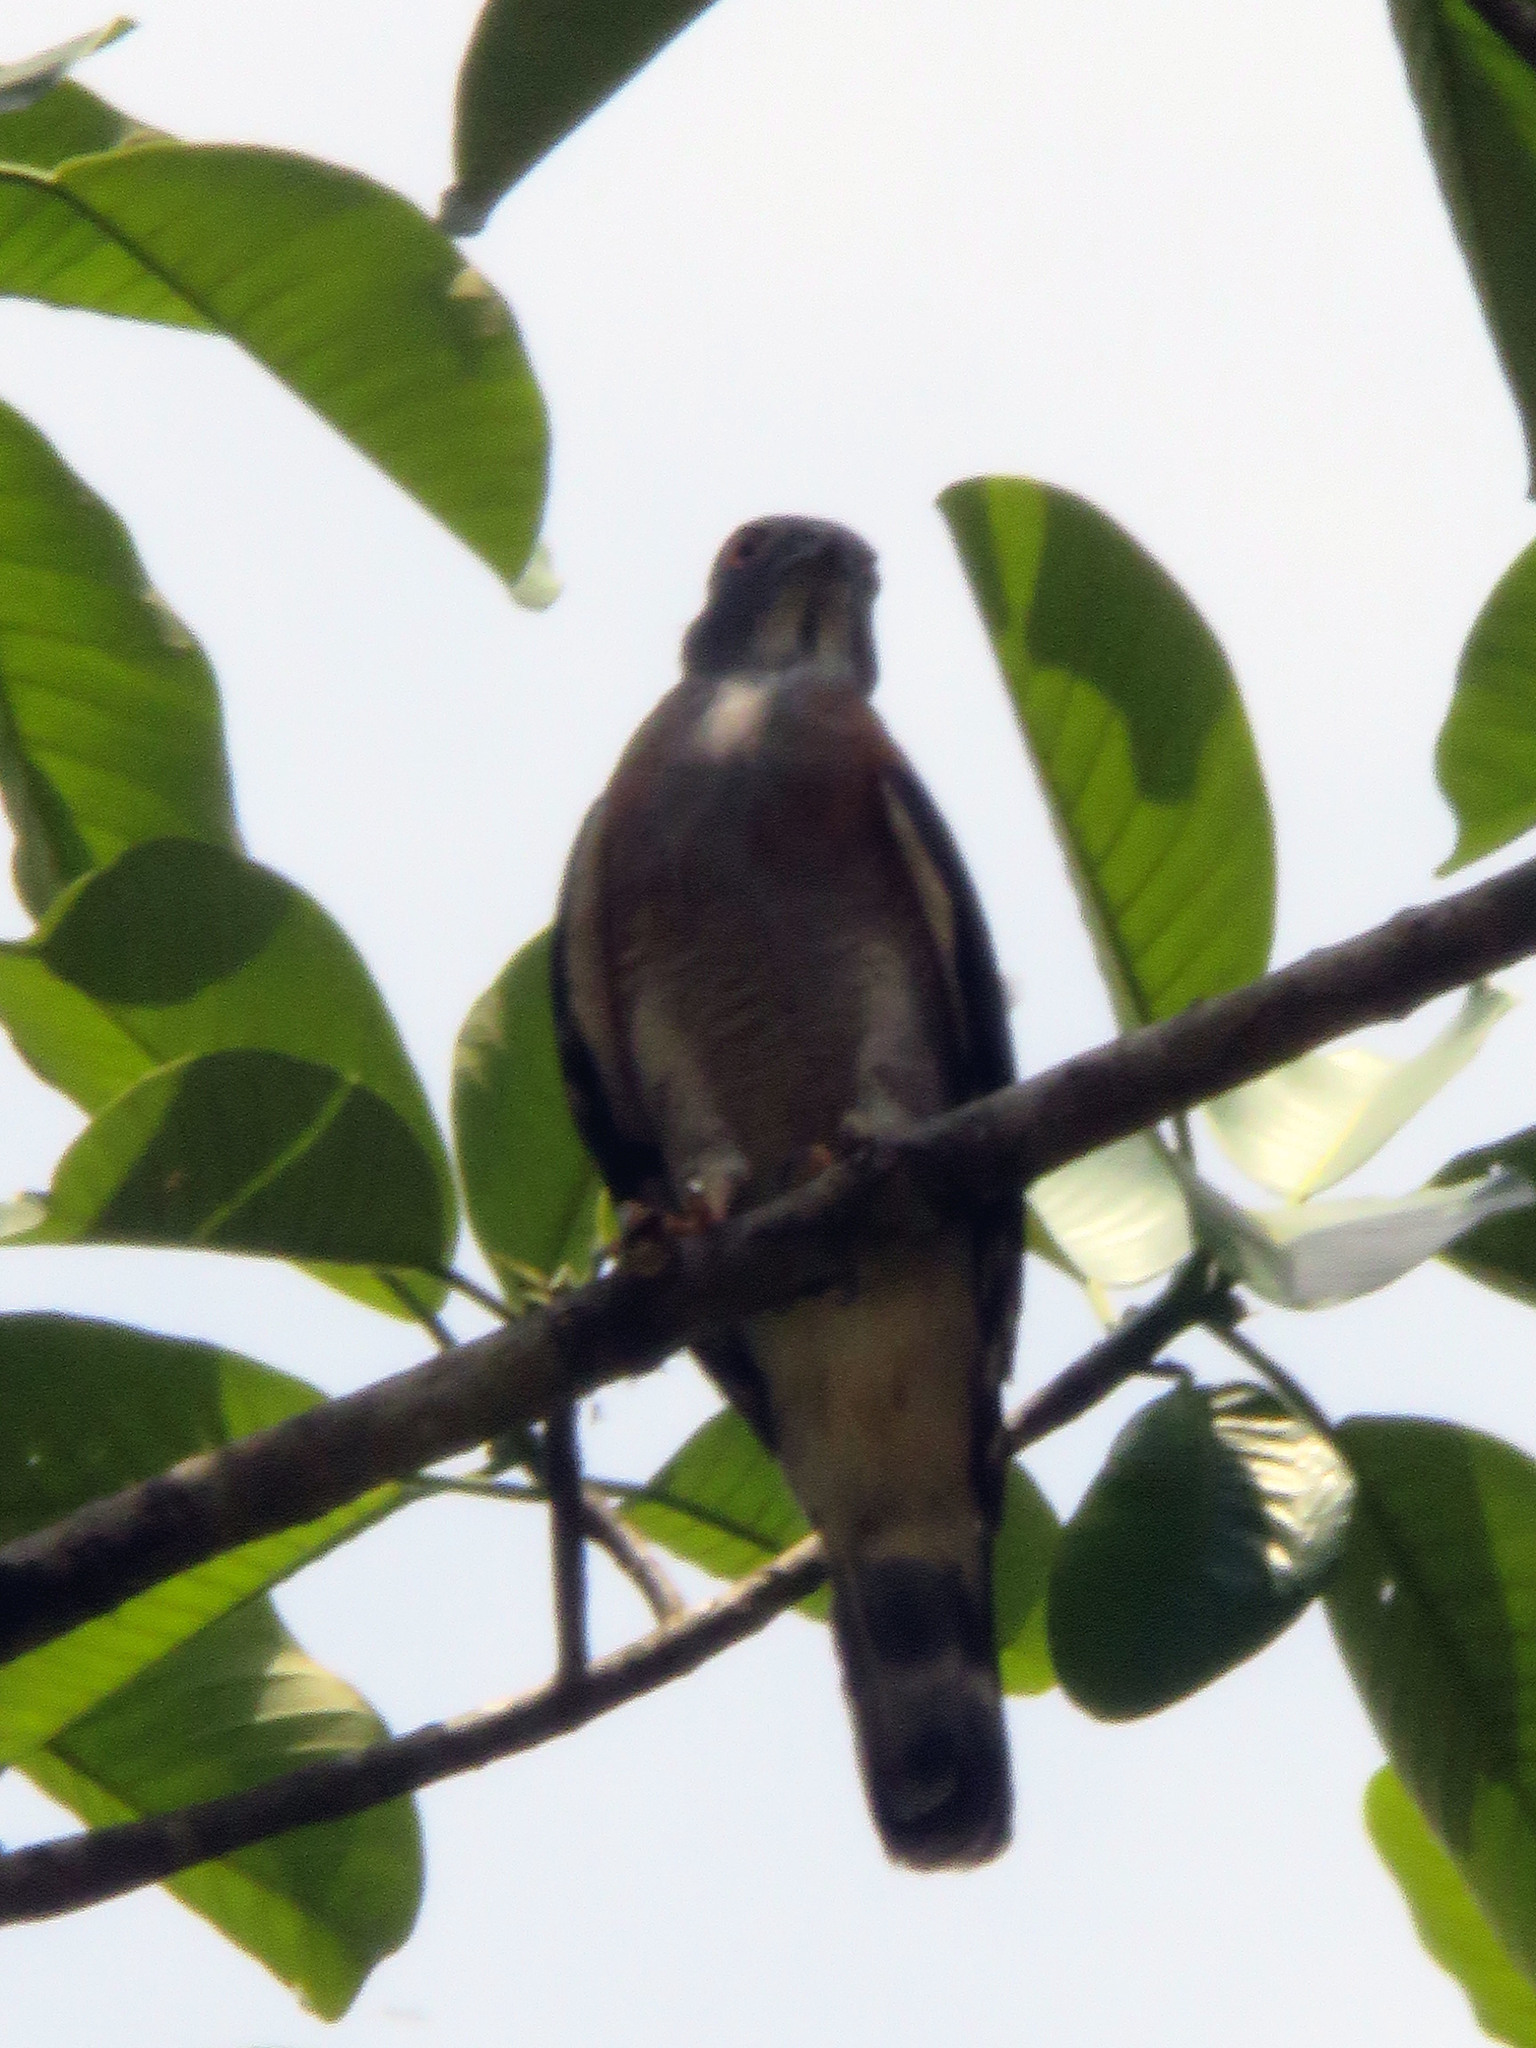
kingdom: Animalia
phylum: Chordata
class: Aves
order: Accipitriformes
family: Accipitridae
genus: Harpagus
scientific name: Harpagus bidentatus
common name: Double-toothed kite
